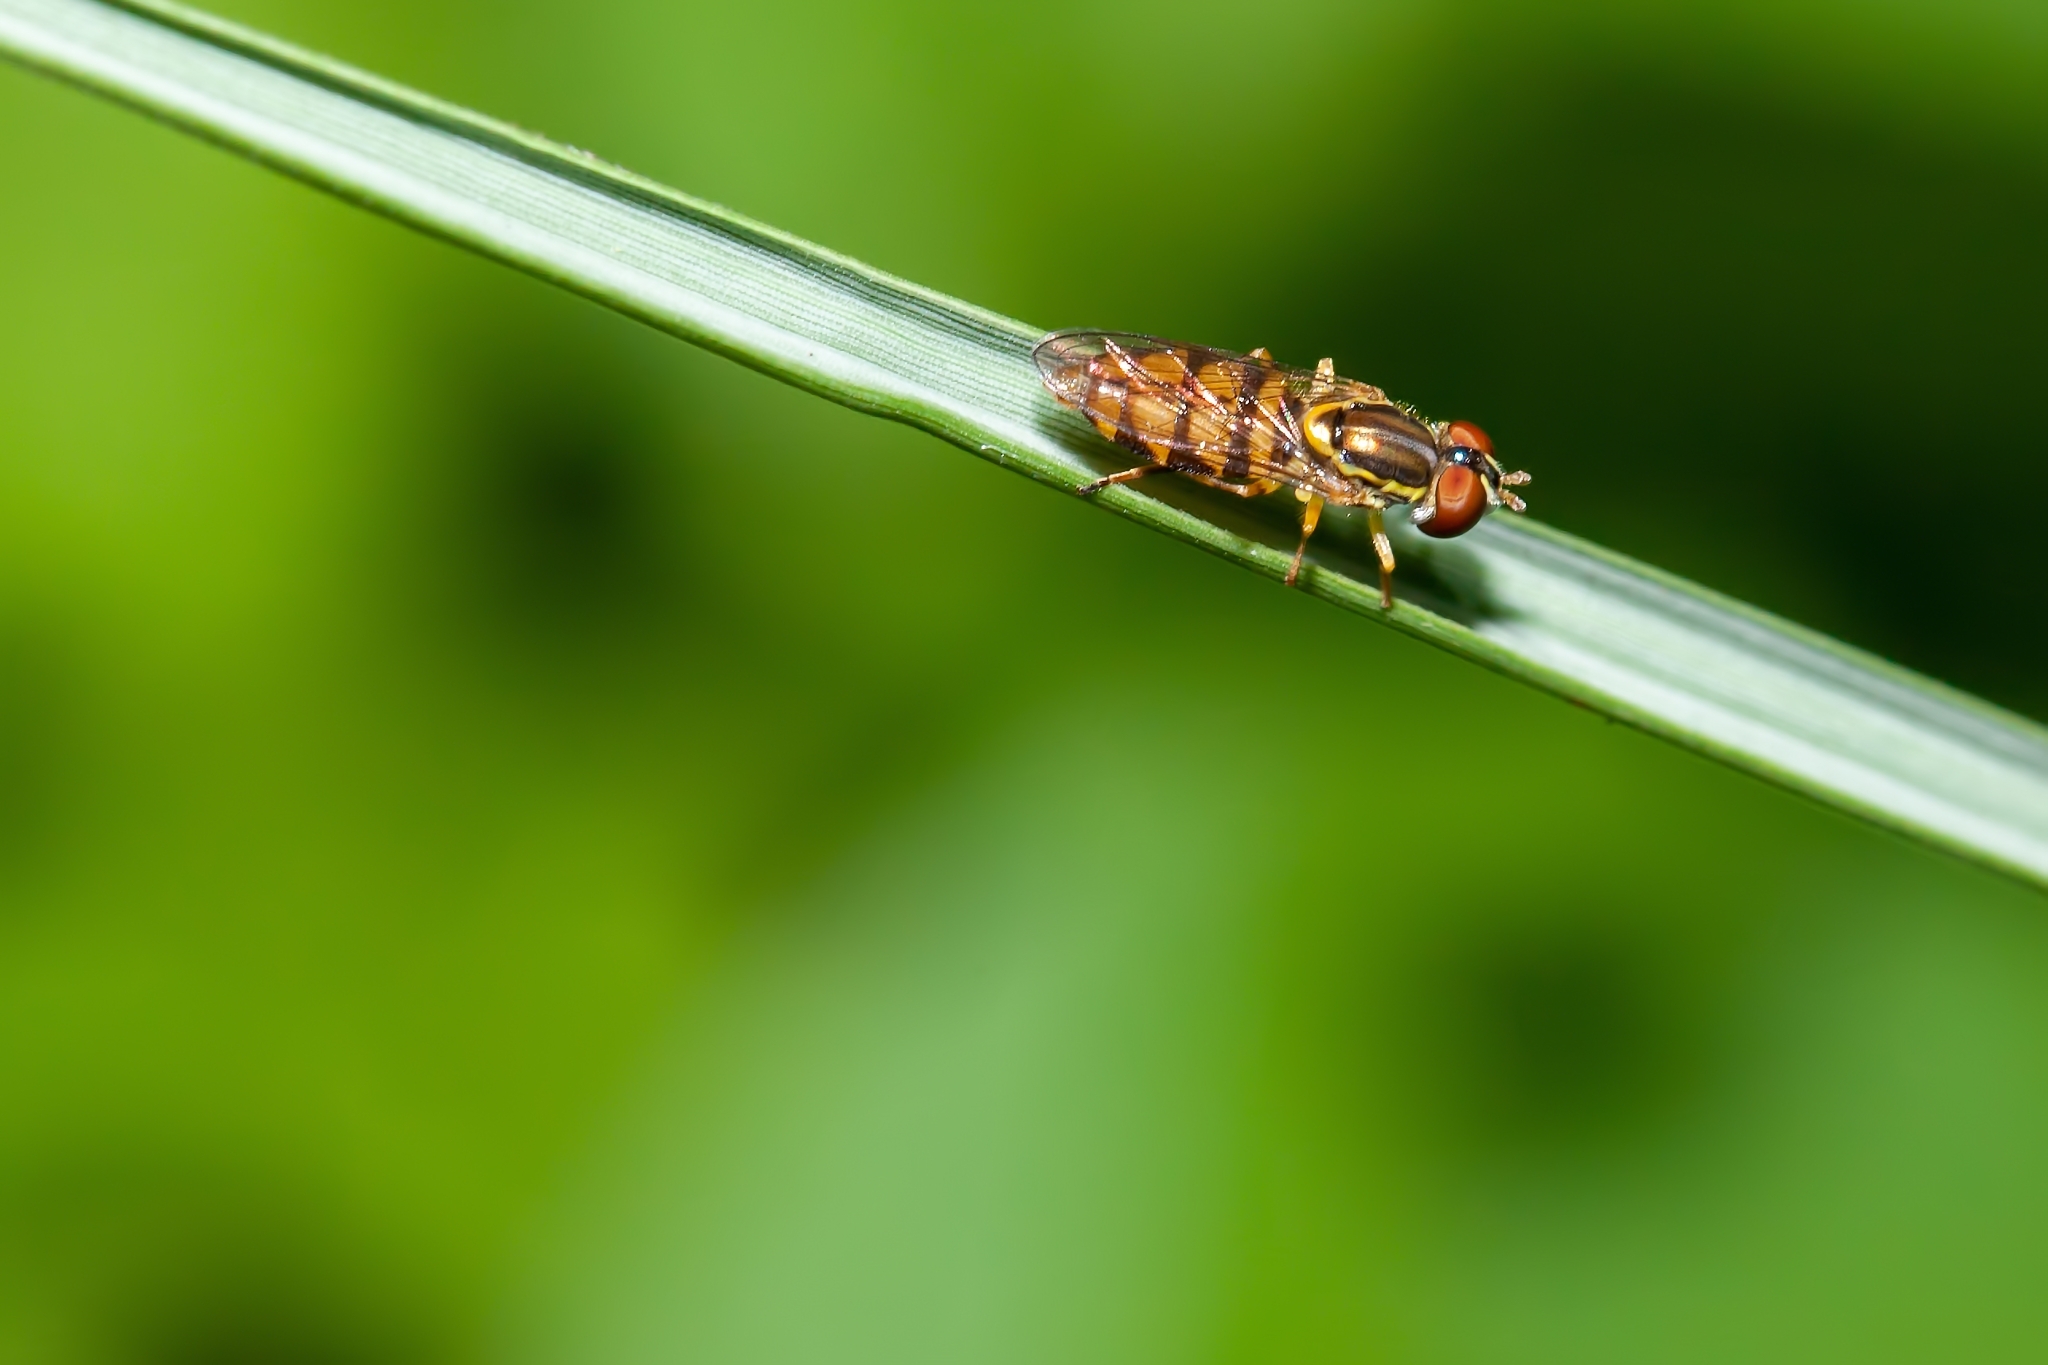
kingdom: Animalia
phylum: Arthropoda
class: Insecta
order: Diptera
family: Syrphidae
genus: Toxomerus
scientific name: Toxomerus floralis
